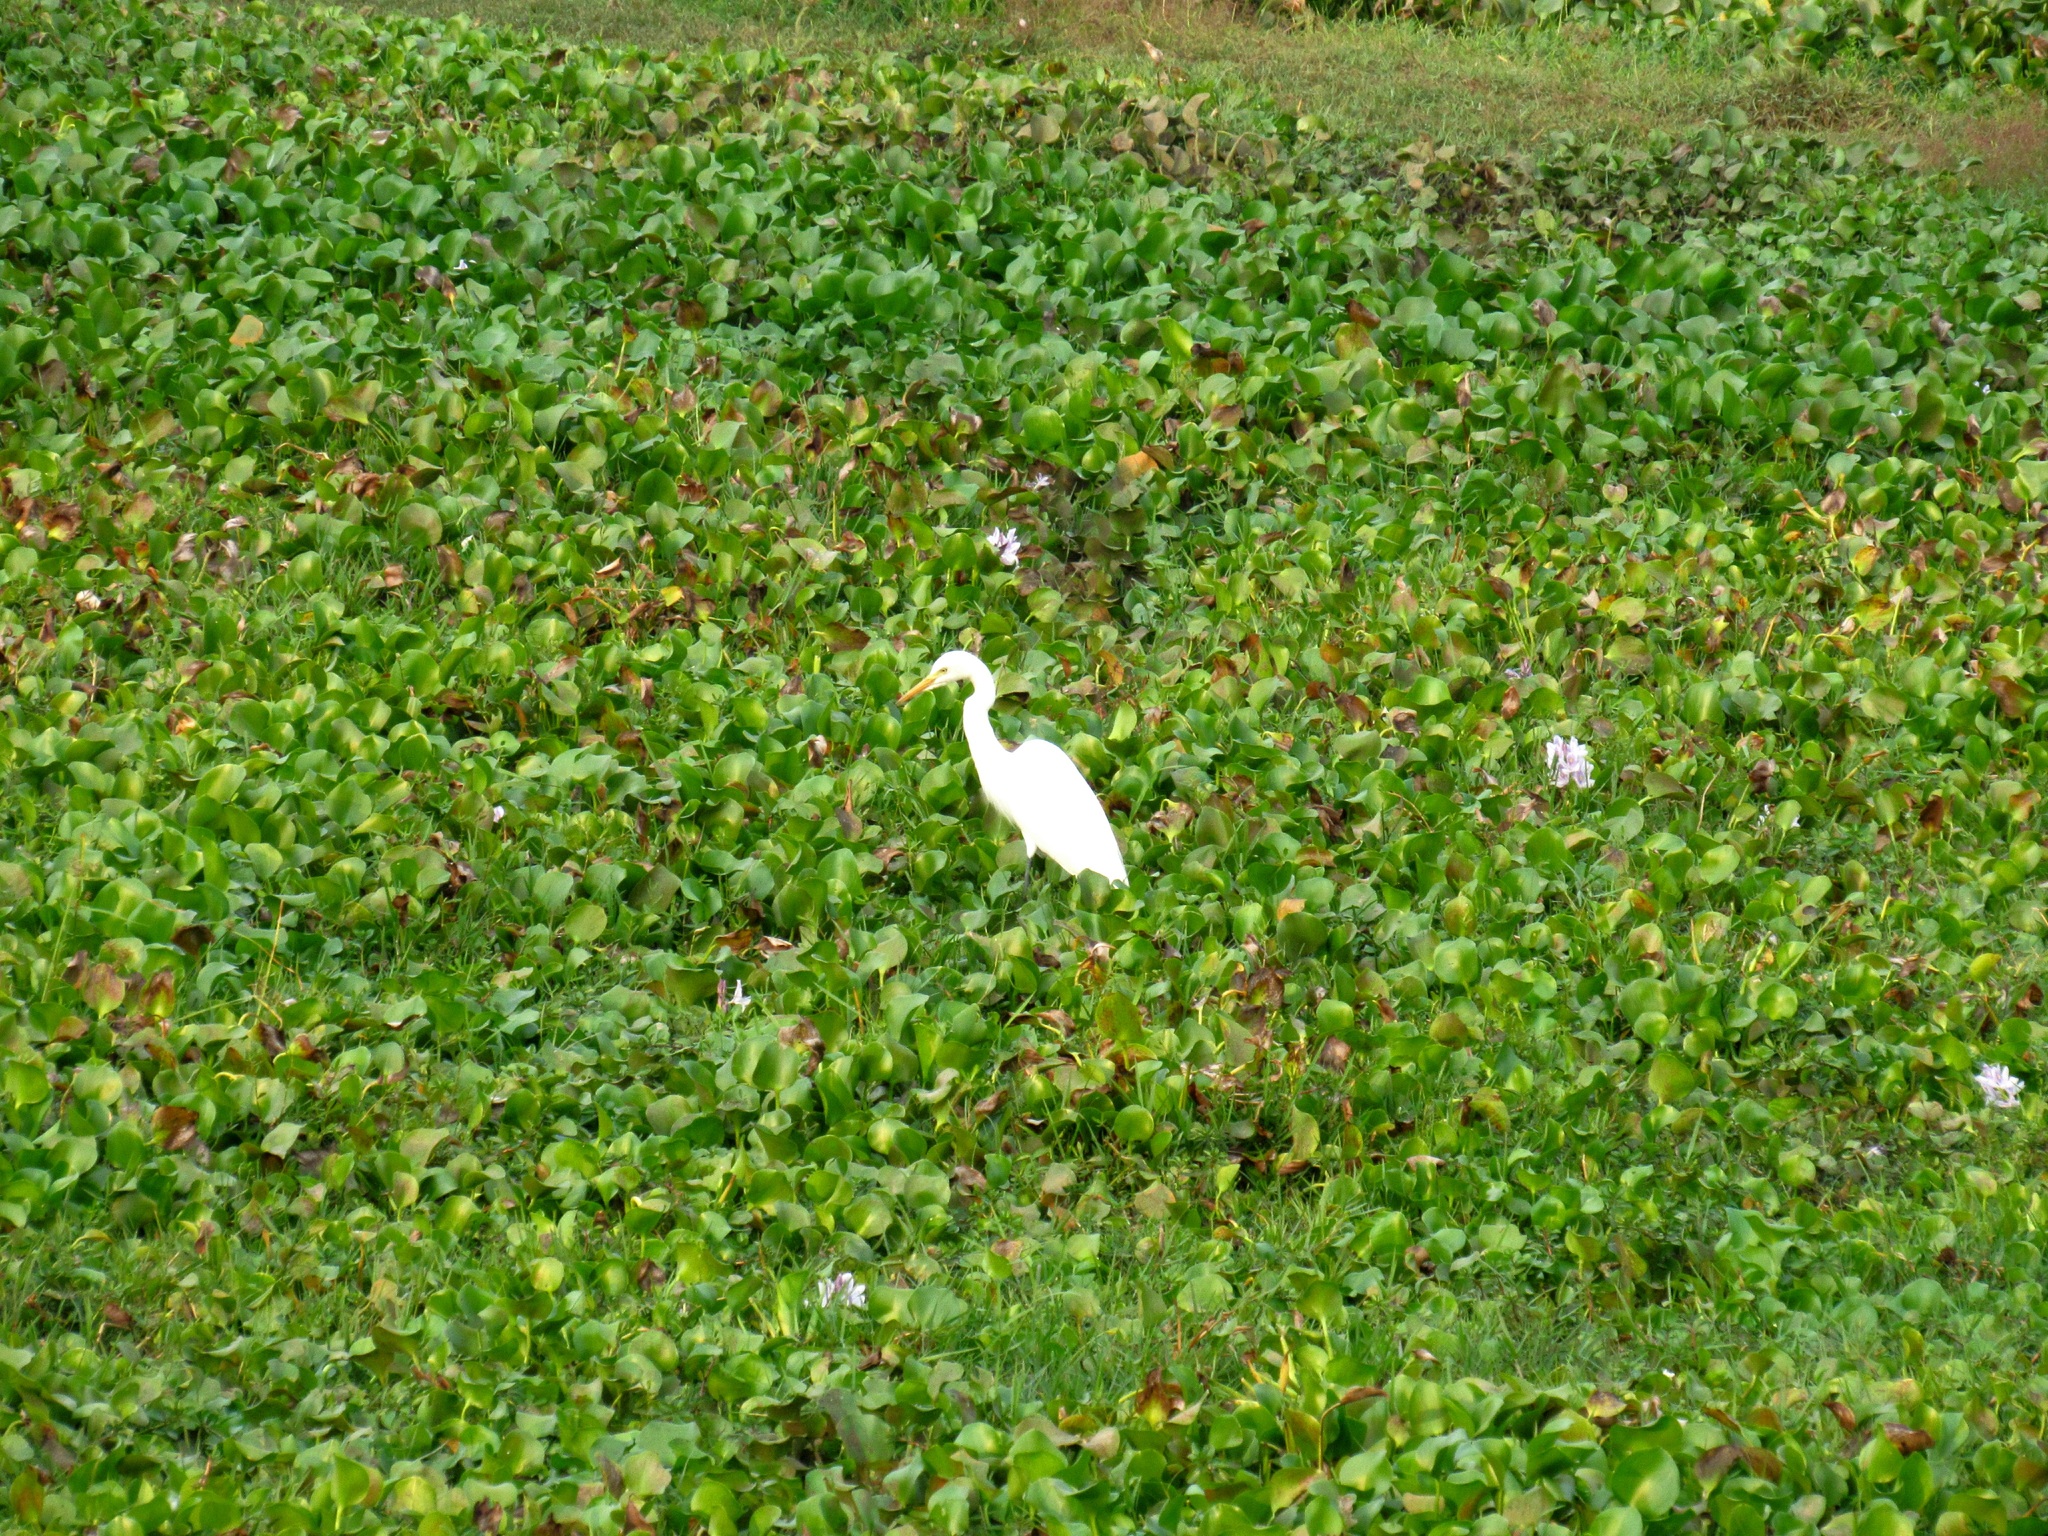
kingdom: Animalia
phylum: Chordata
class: Aves
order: Pelecaniformes
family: Ardeidae
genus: Egretta
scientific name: Egretta intermedia
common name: Intermediate egret
